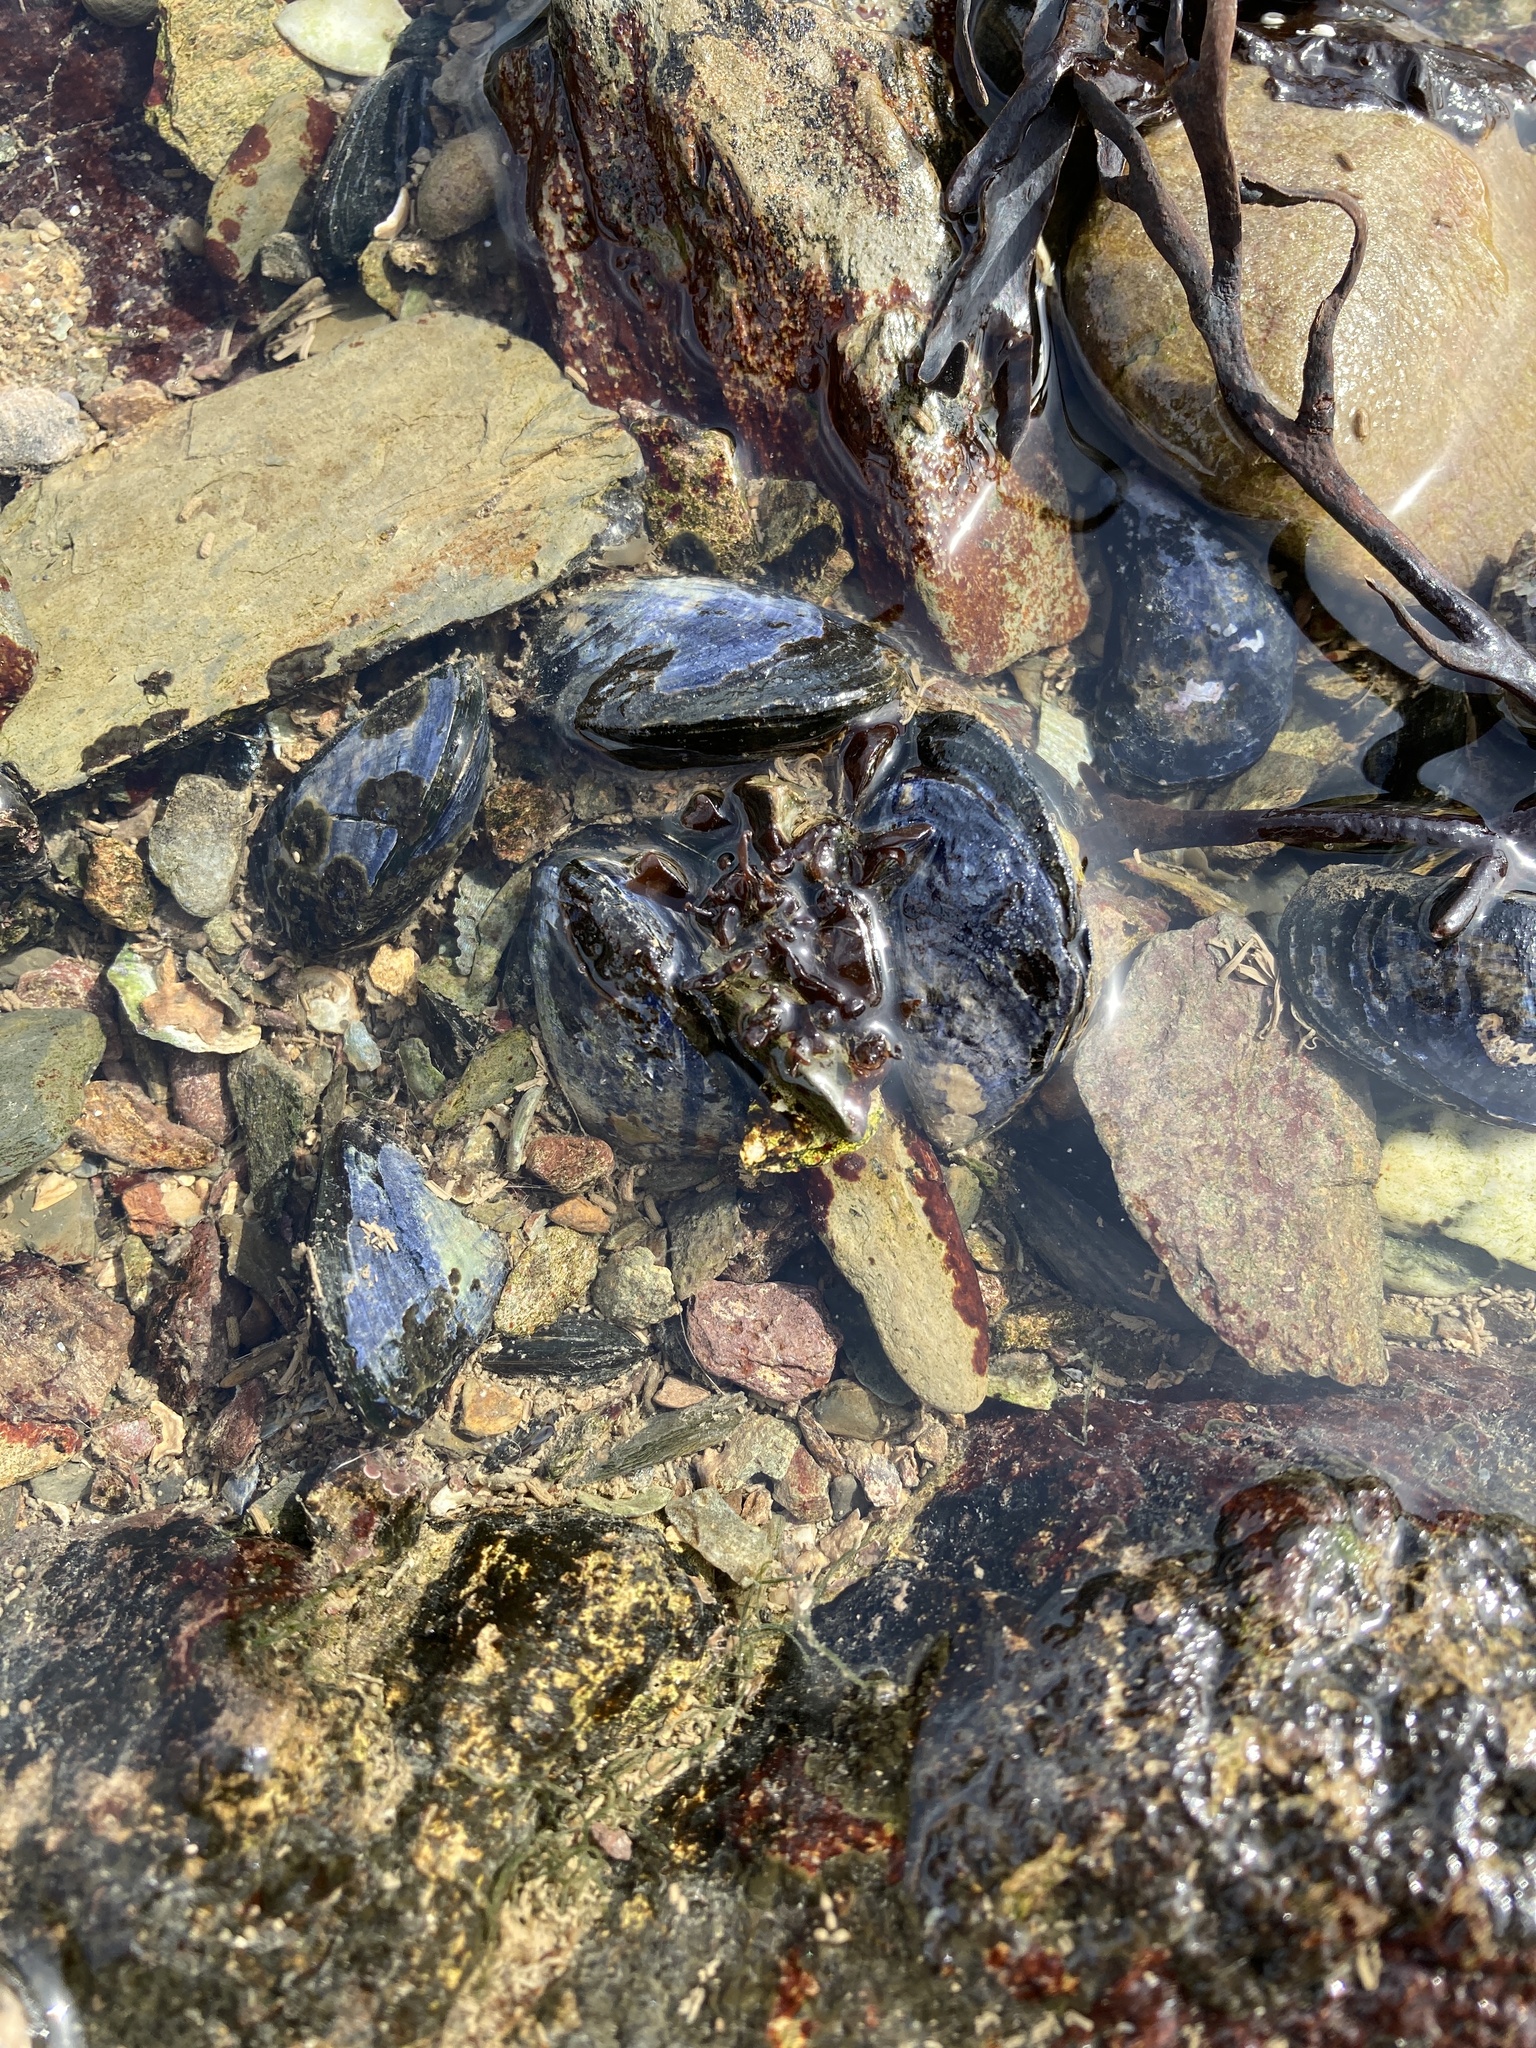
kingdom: Animalia
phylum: Mollusca
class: Bivalvia
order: Mytilida
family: Mytilidae
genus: Mytilus
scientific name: Mytilus edulis
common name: Blue mussel
